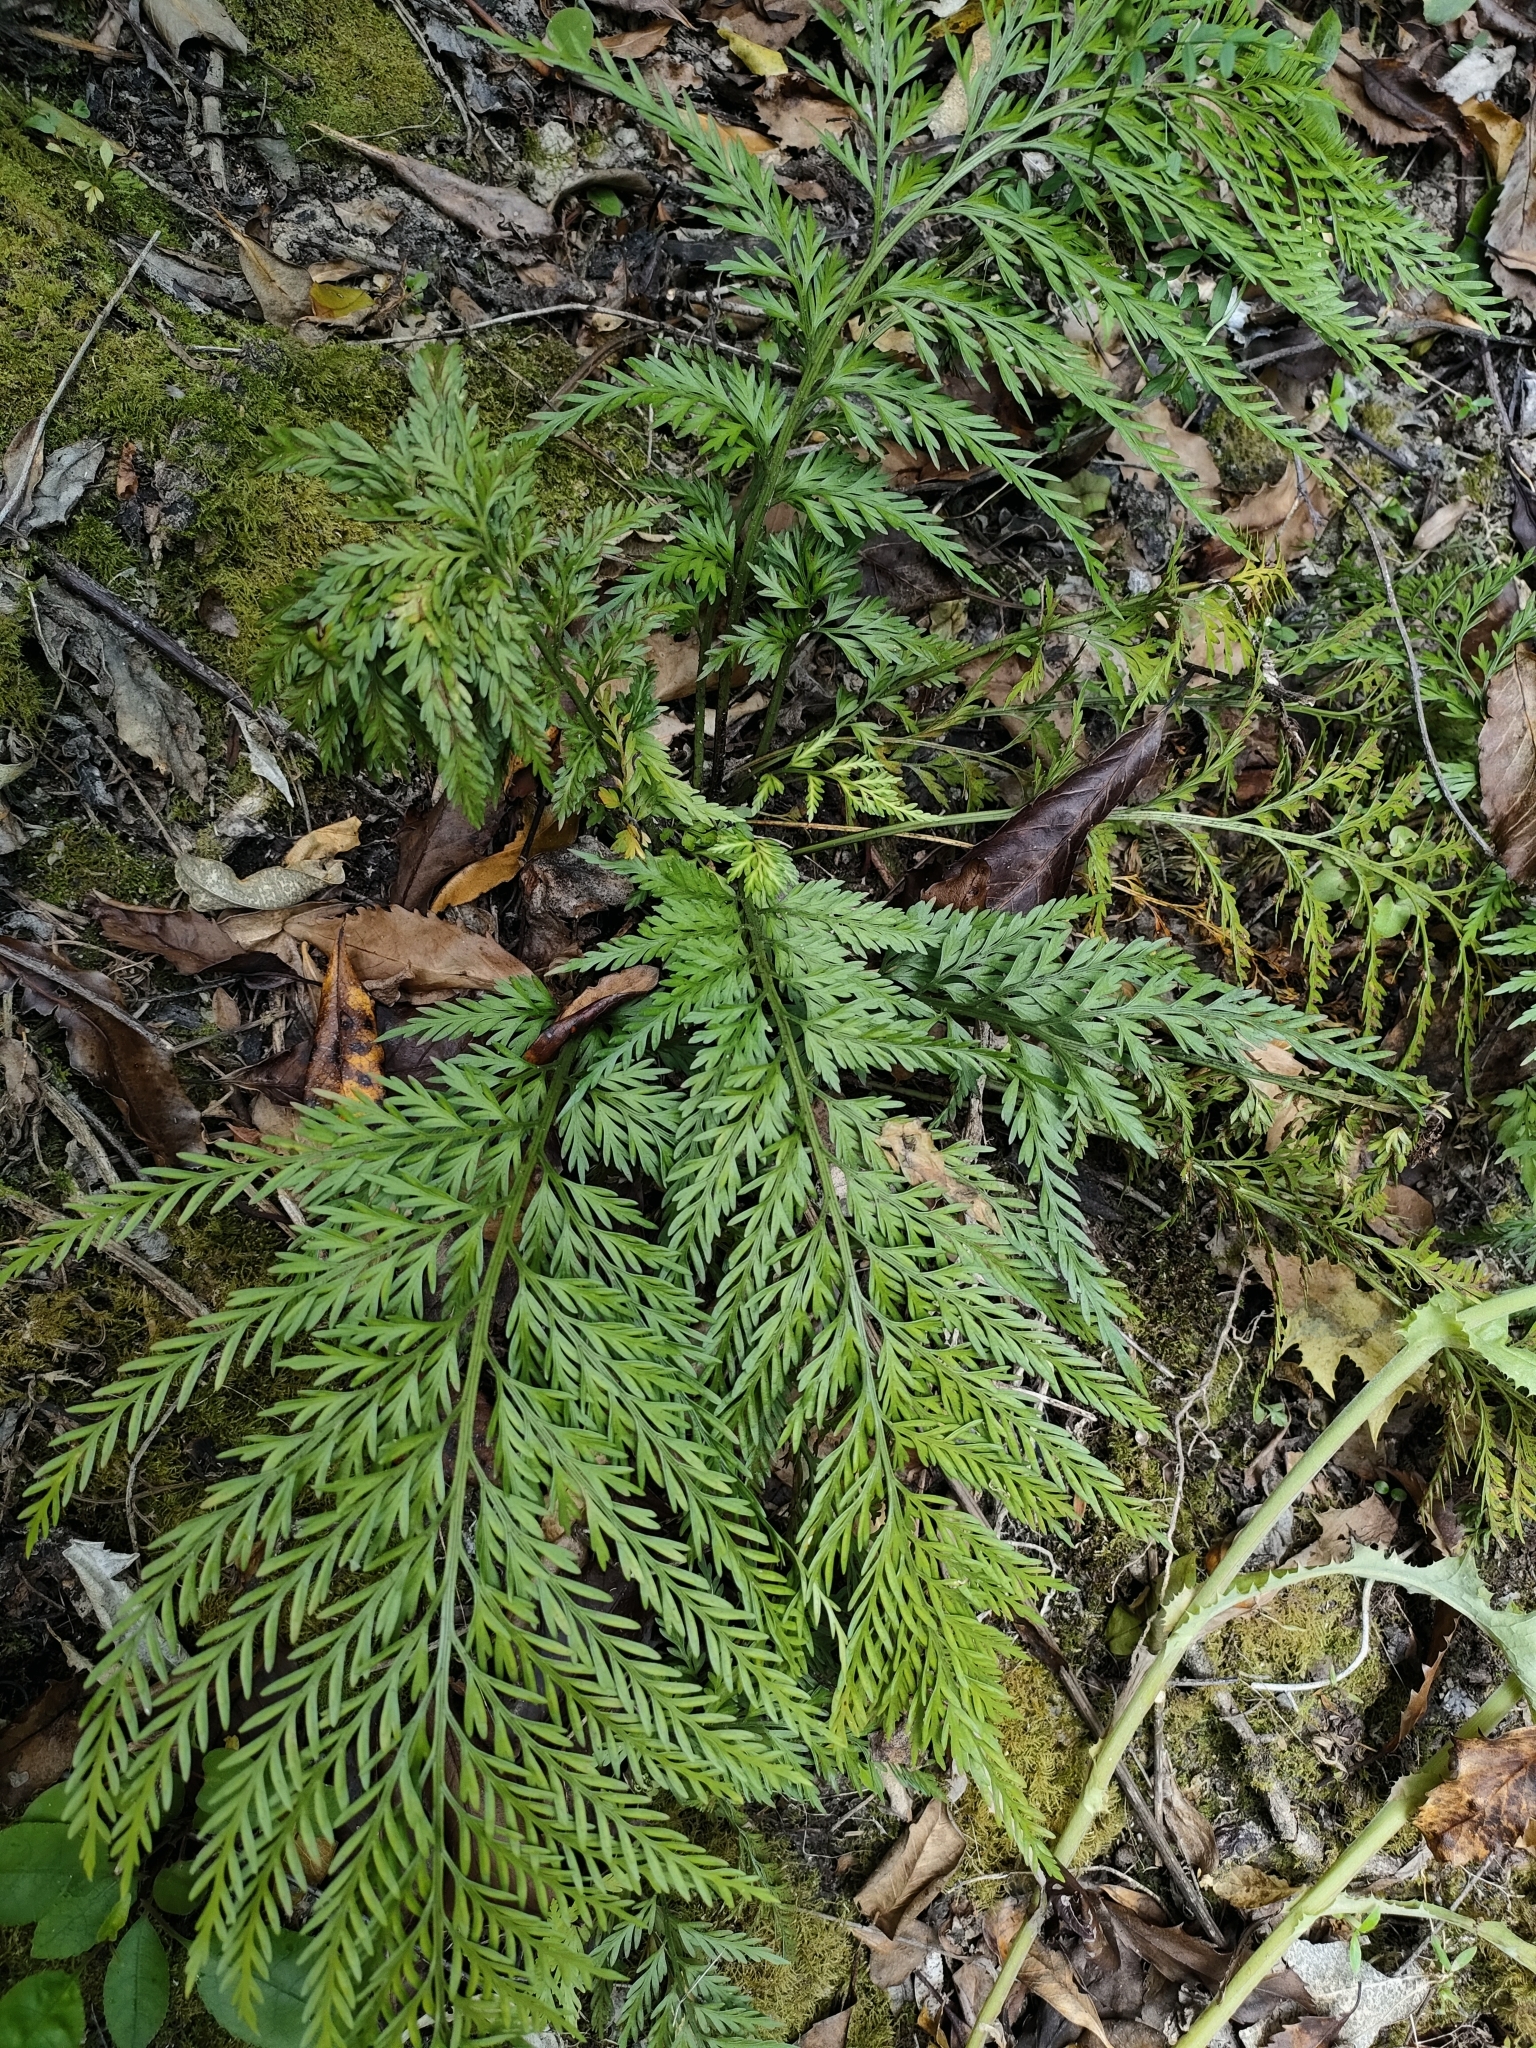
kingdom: Plantae
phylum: Tracheophyta
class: Polypodiopsida
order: Polypodiales
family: Aspleniaceae
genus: Asplenium
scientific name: Asplenium appendiculatum
